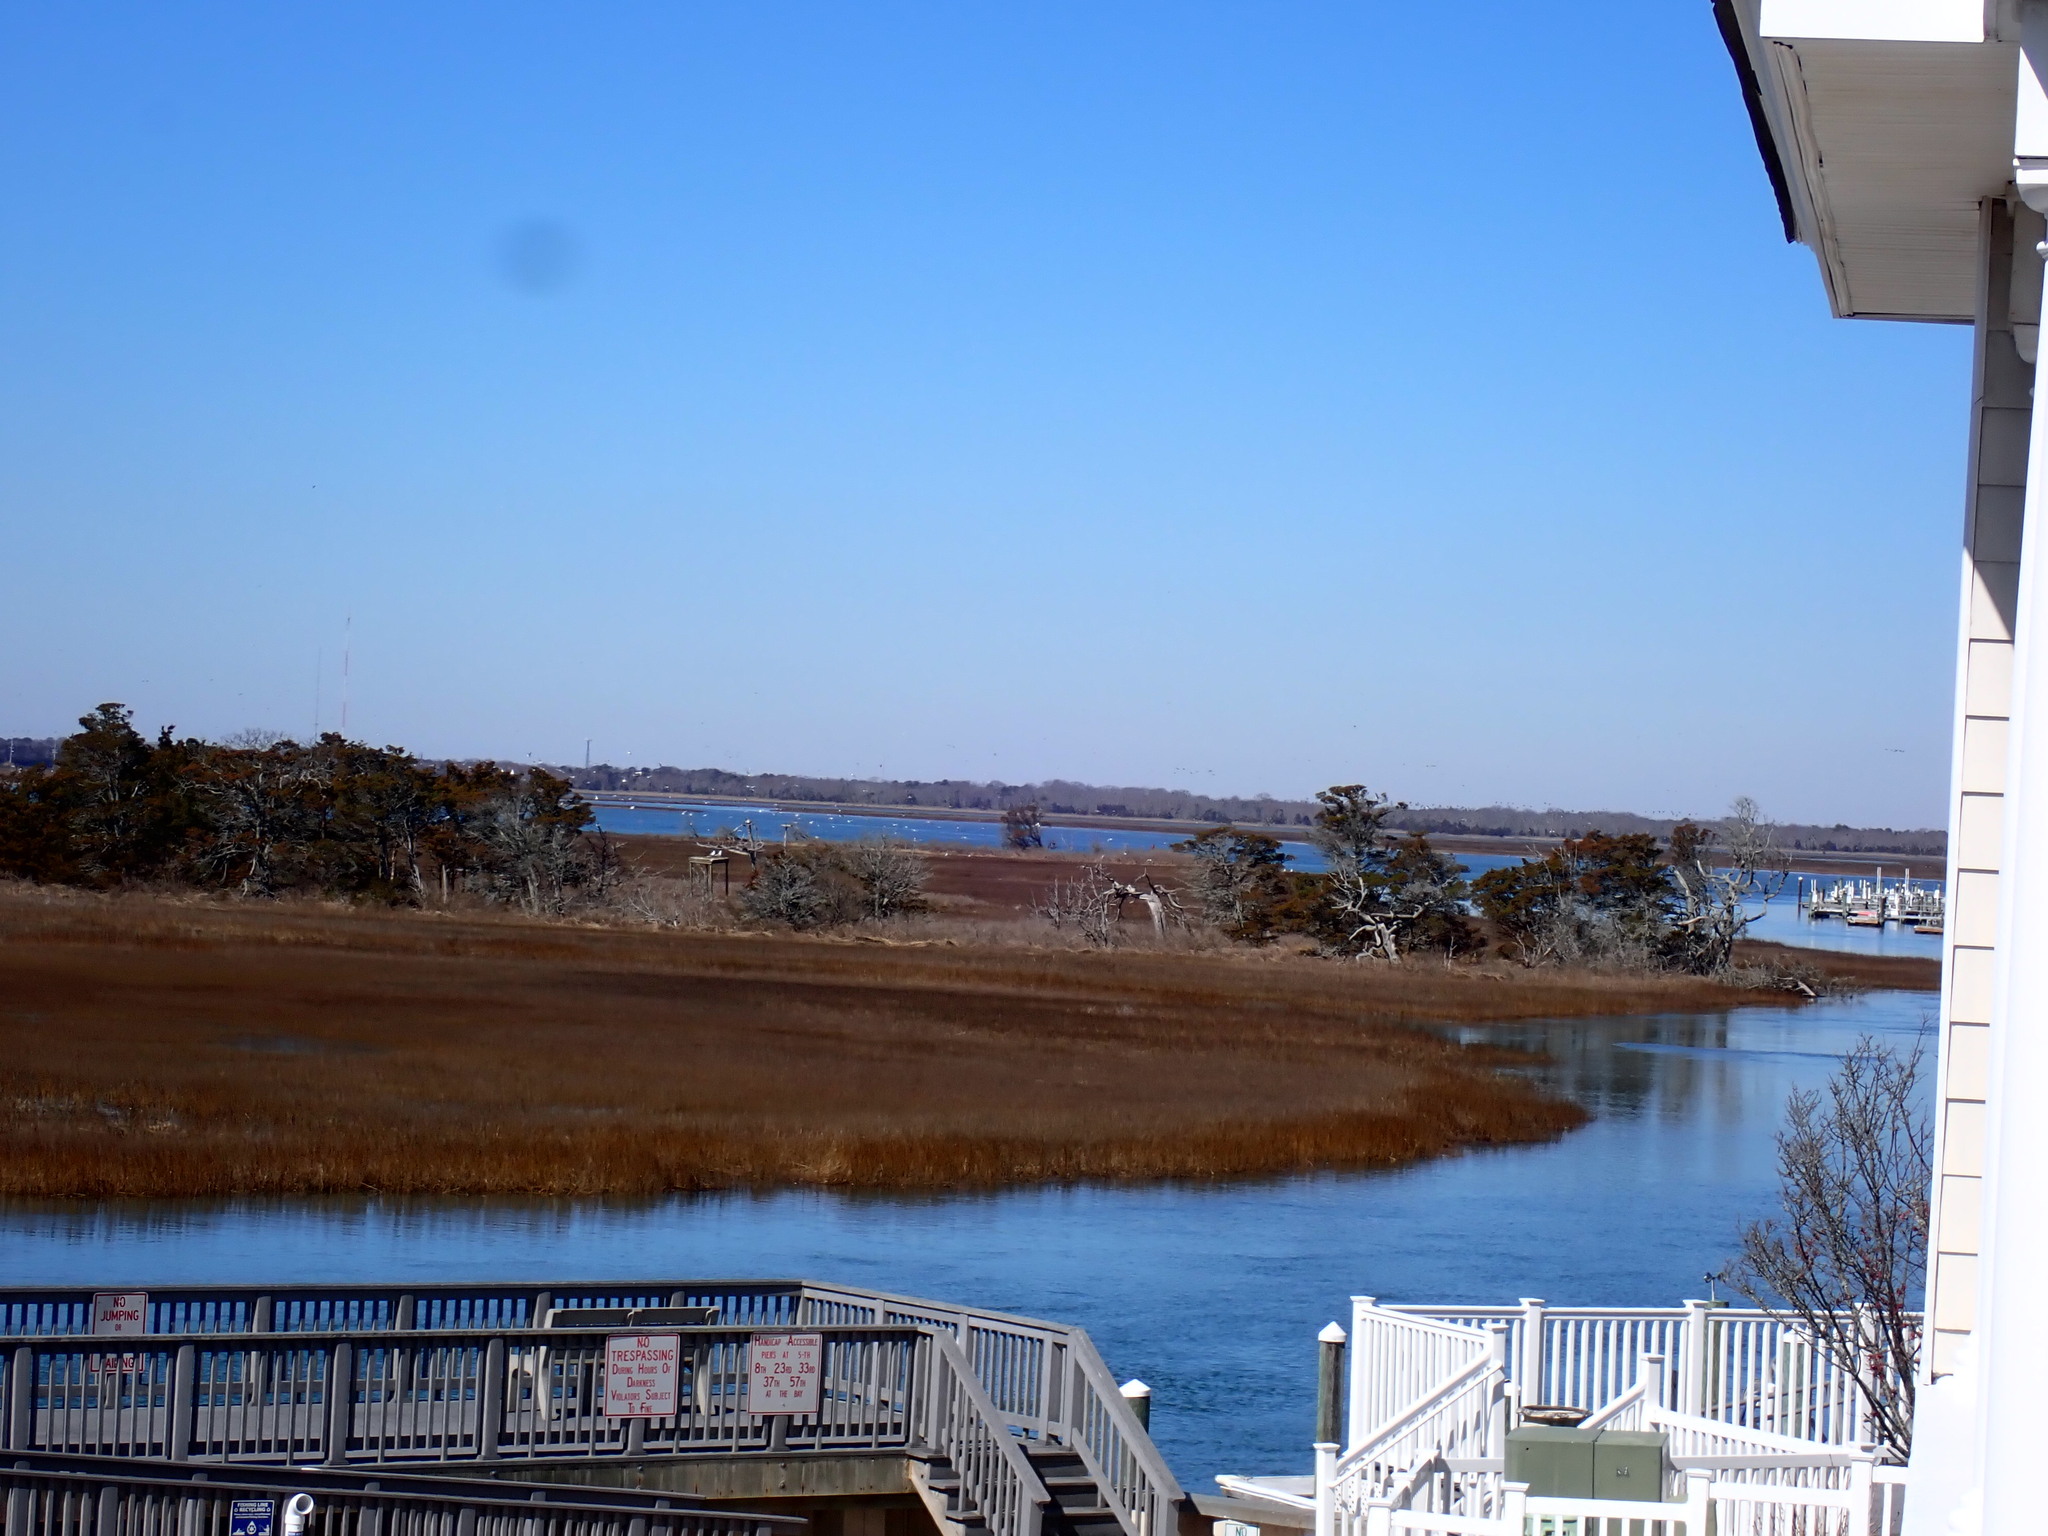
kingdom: Animalia
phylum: Chordata
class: Aves
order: Anseriformes
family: Anatidae
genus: Anser
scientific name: Anser caerulescens
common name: Snow goose
